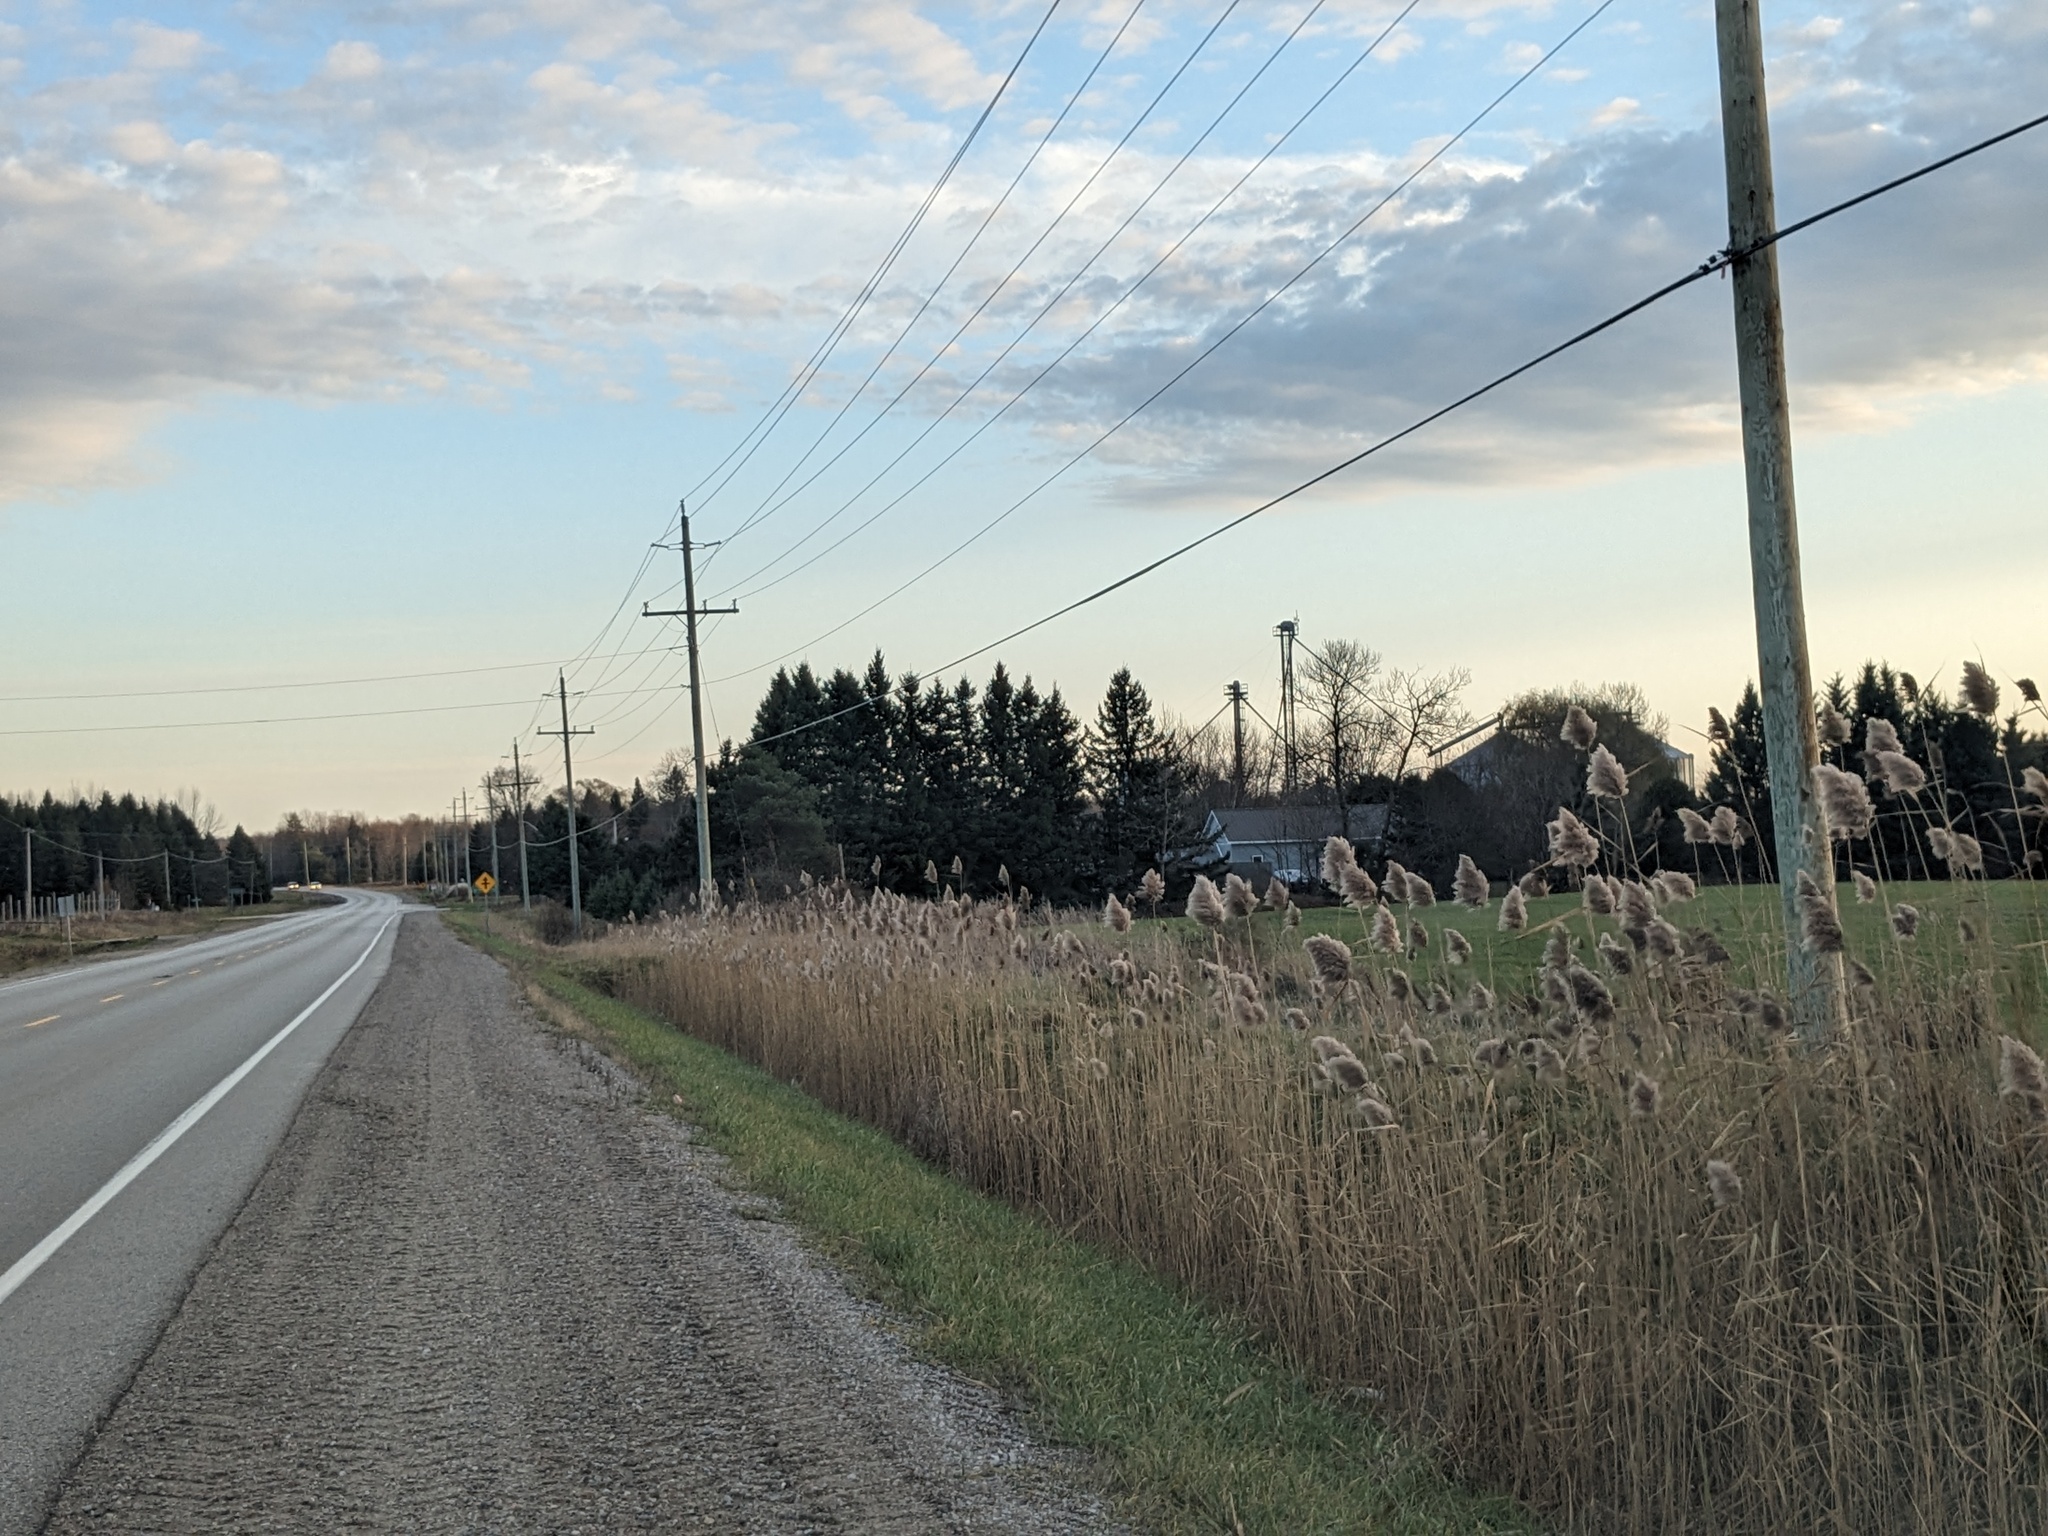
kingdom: Plantae
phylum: Tracheophyta
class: Liliopsida
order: Poales
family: Poaceae
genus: Phragmites
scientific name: Phragmites australis
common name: Common reed
